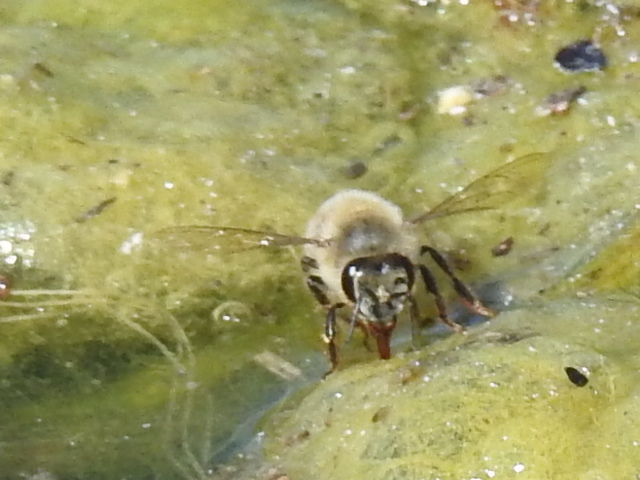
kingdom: Animalia
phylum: Arthropoda
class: Insecta
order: Hymenoptera
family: Apidae
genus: Apis
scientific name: Apis mellifera
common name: Honey bee
